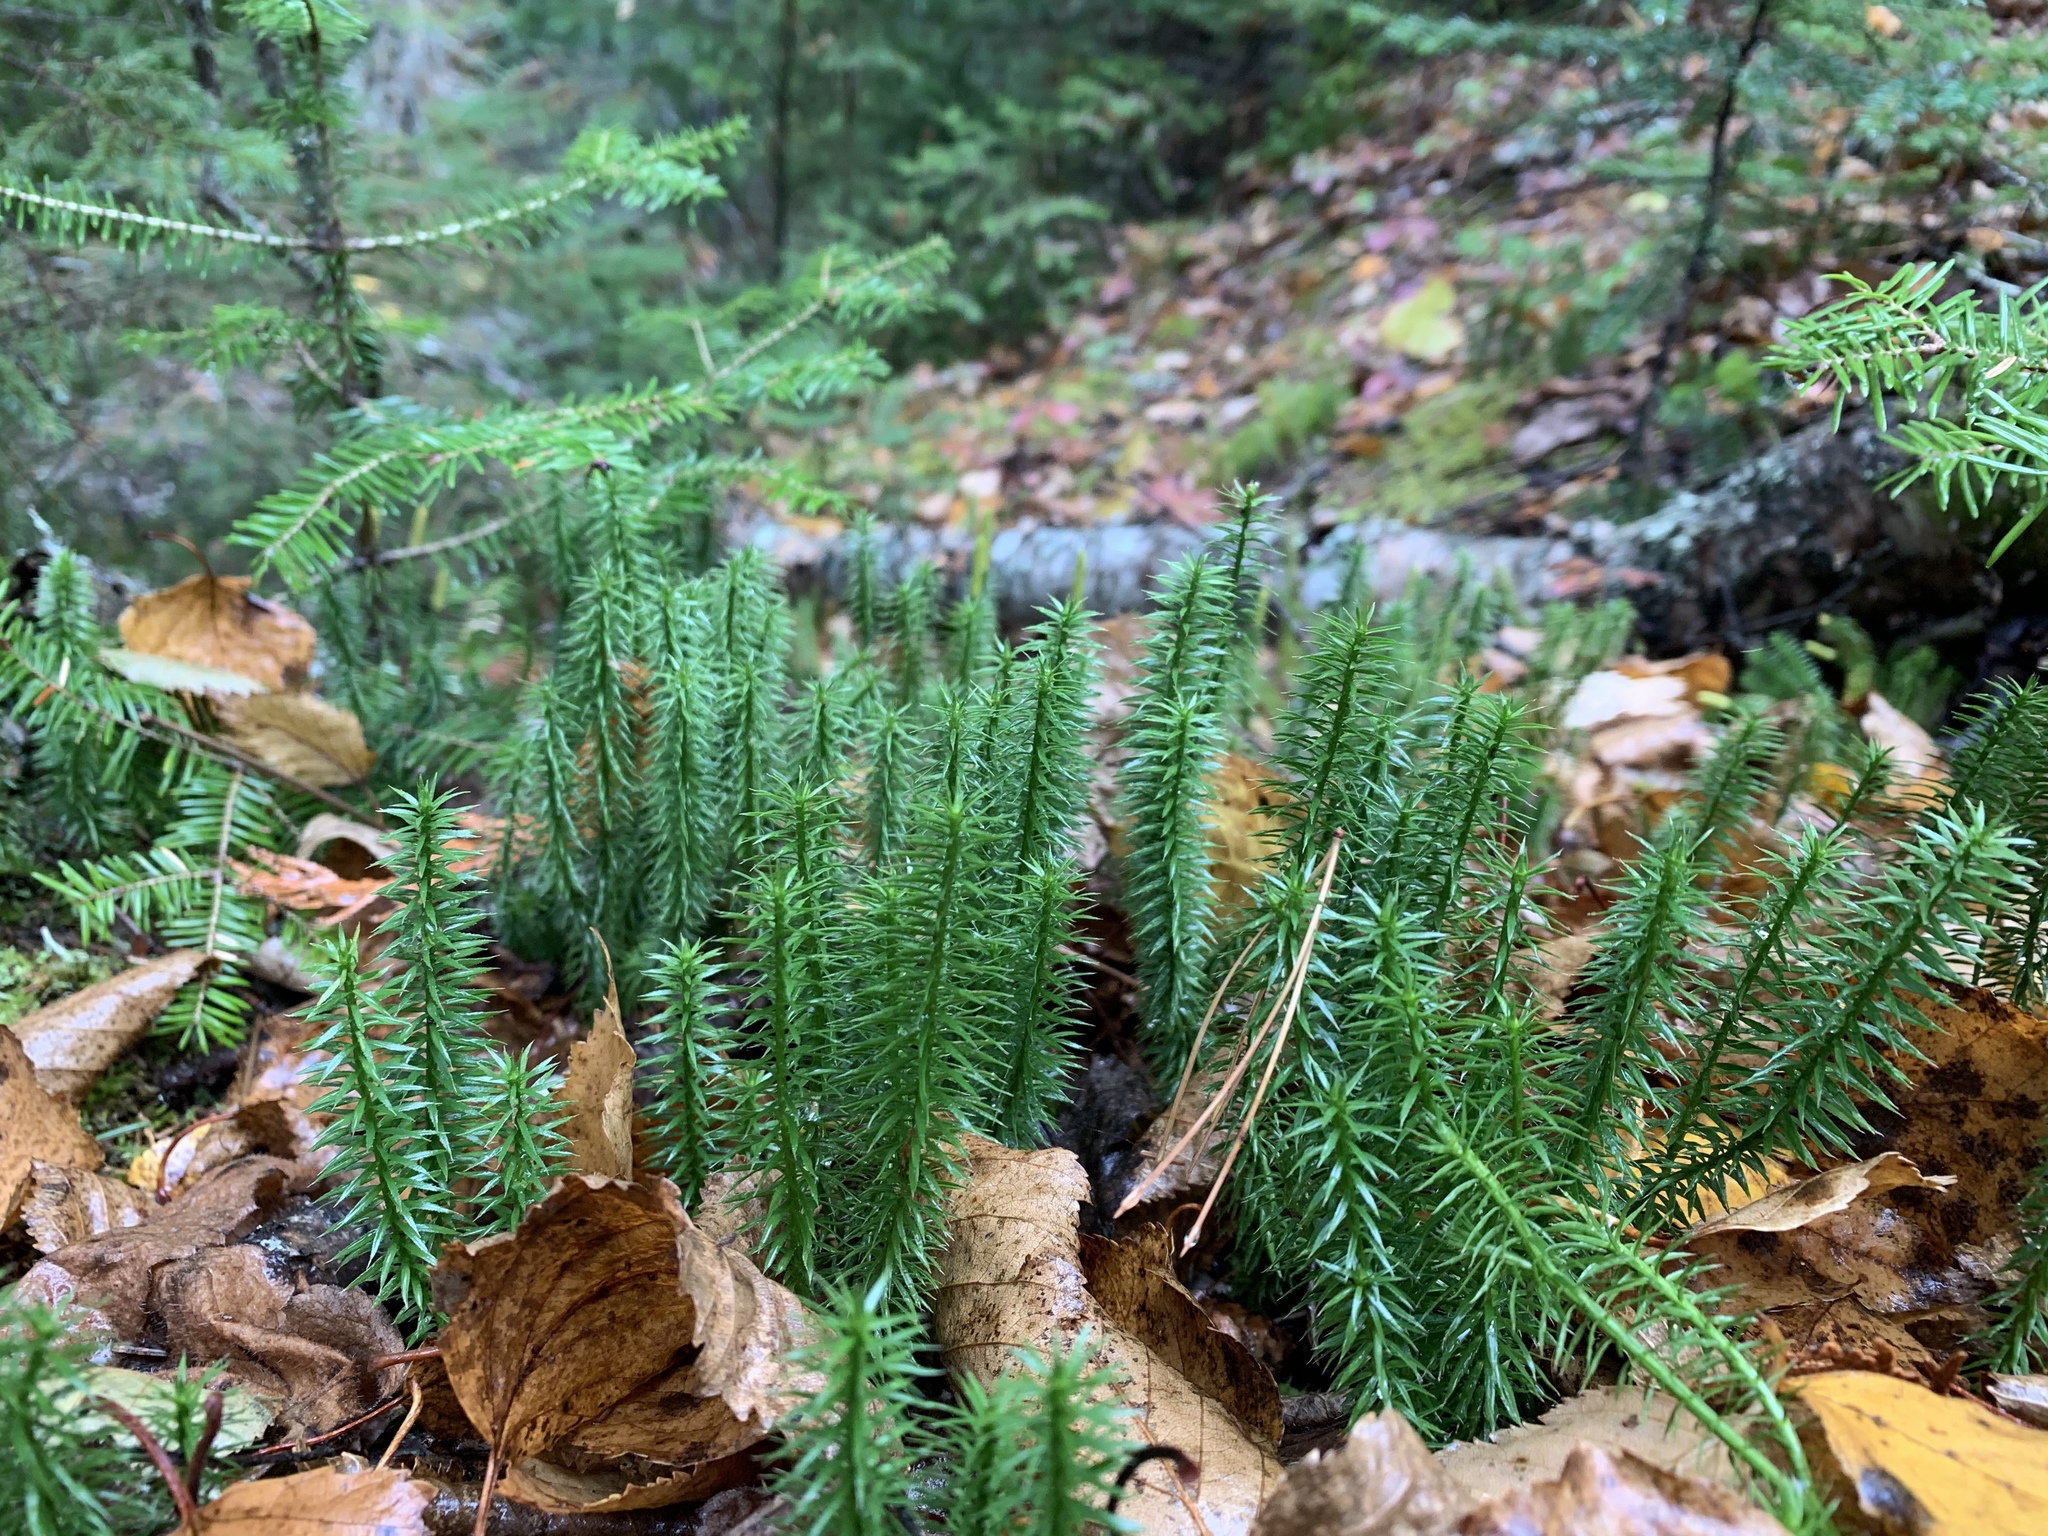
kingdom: Plantae
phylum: Tracheophyta
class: Lycopodiopsida
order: Lycopodiales
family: Lycopodiaceae
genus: Spinulum
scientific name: Spinulum annotinum
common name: Interrupted club-moss
